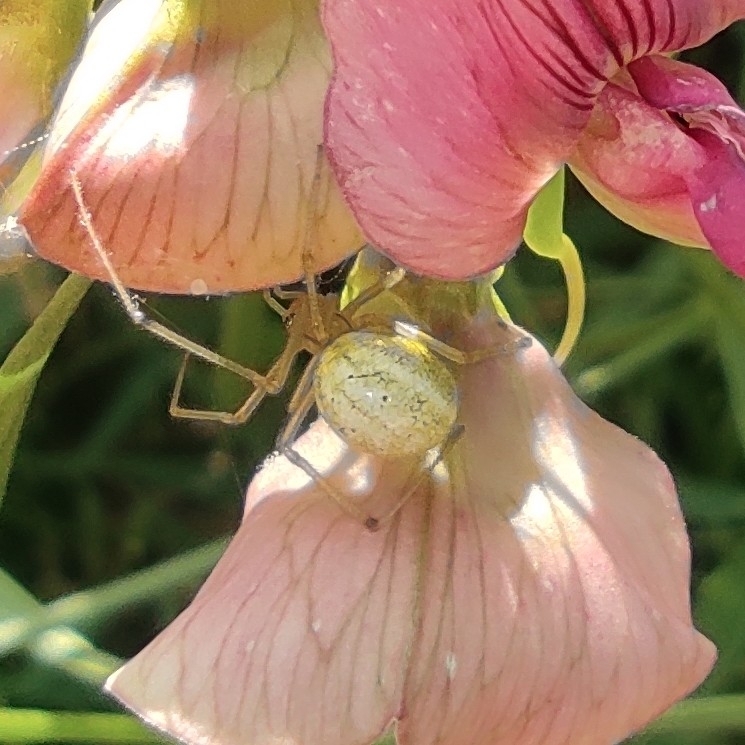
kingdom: Animalia
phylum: Arthropoda
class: Arachnida
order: Araneae
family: Theridiidae
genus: Enoplognatha
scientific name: Enoplognatha
